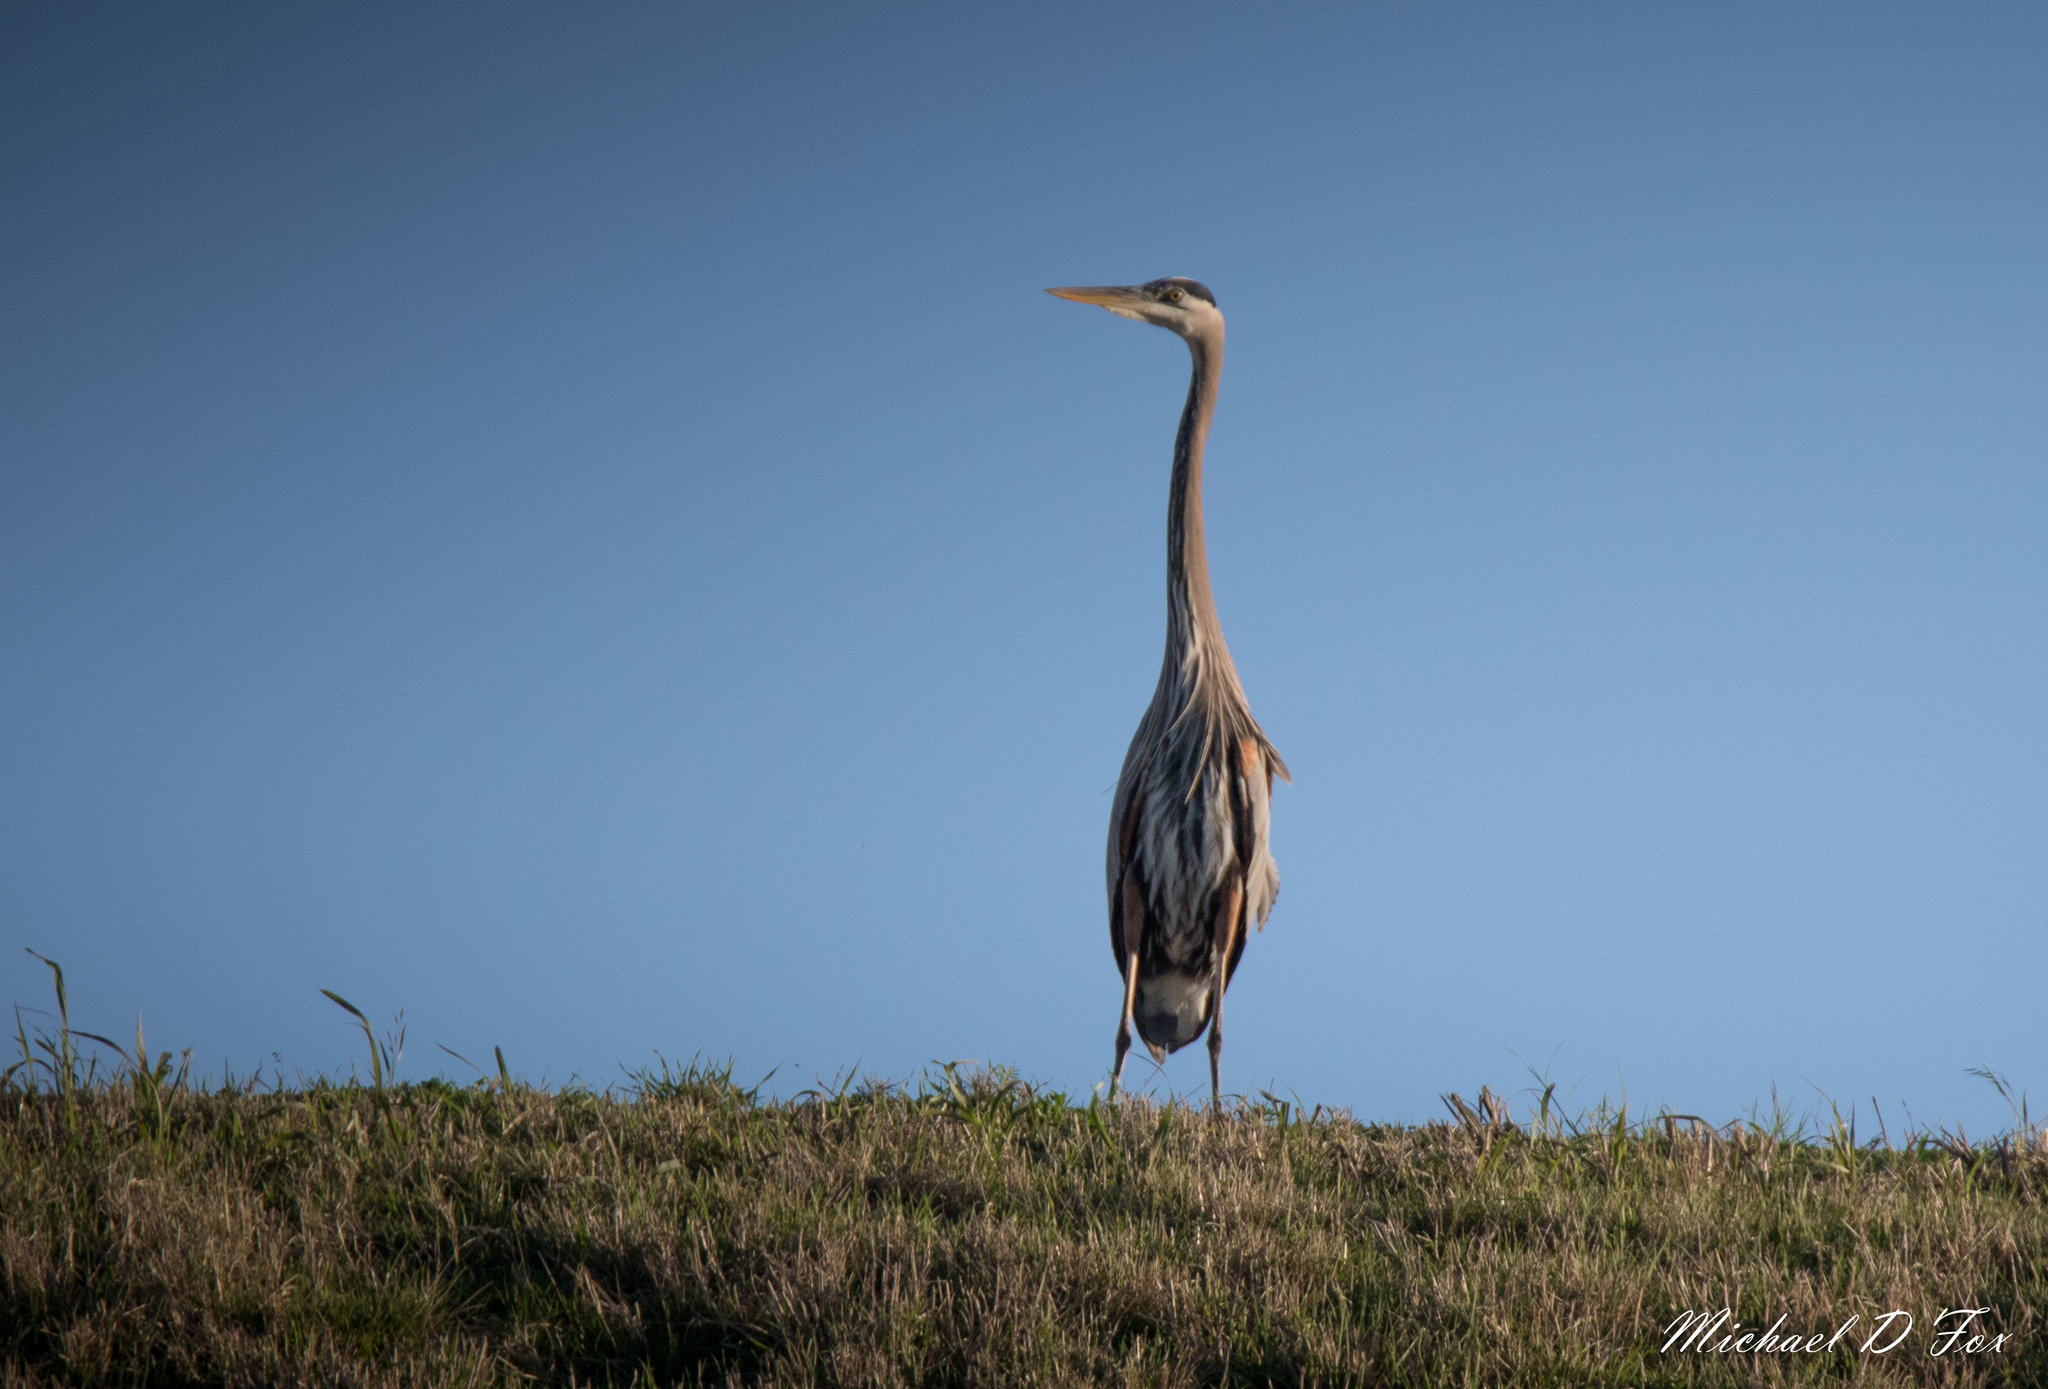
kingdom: Animalia
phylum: Chordata
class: Aves
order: Pelecaniformes
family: Ardeidae
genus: Ardea
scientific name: Ardea herodias
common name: Great blue heron
